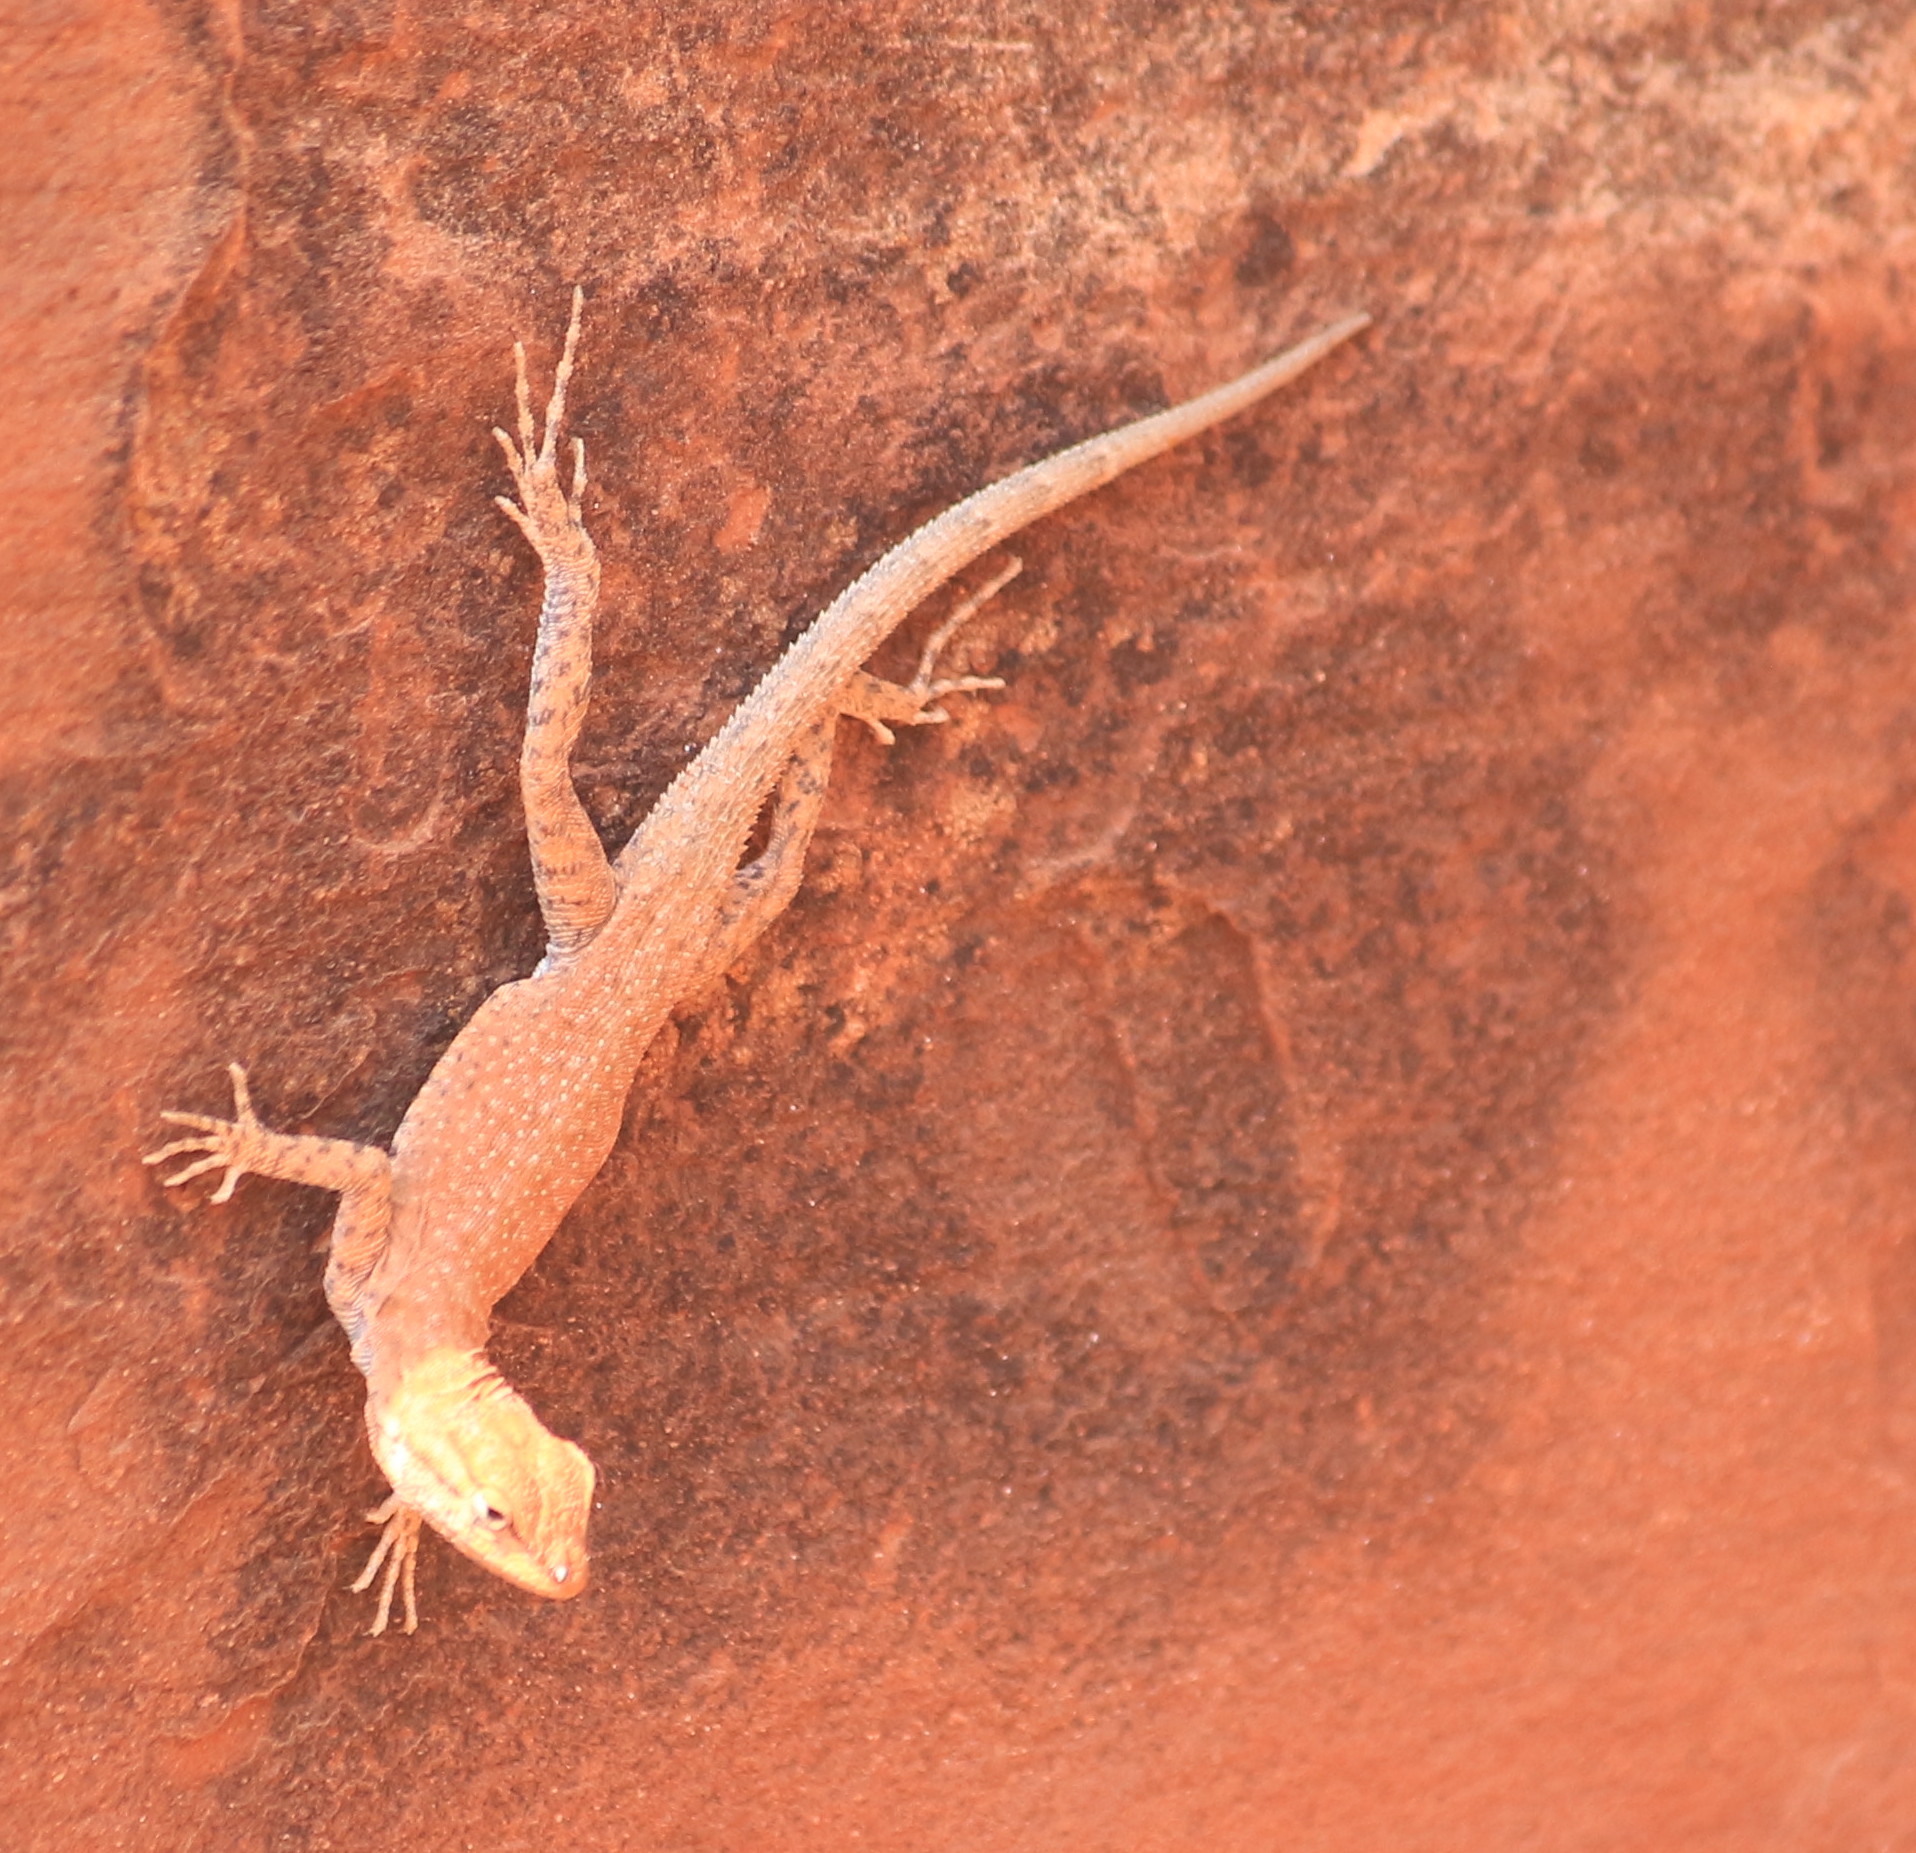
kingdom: Animalia
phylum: Chordata
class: Squamata
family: Phrynosomatidae
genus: Uta
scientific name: Uta stansburiana
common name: Side-blotched lizard
